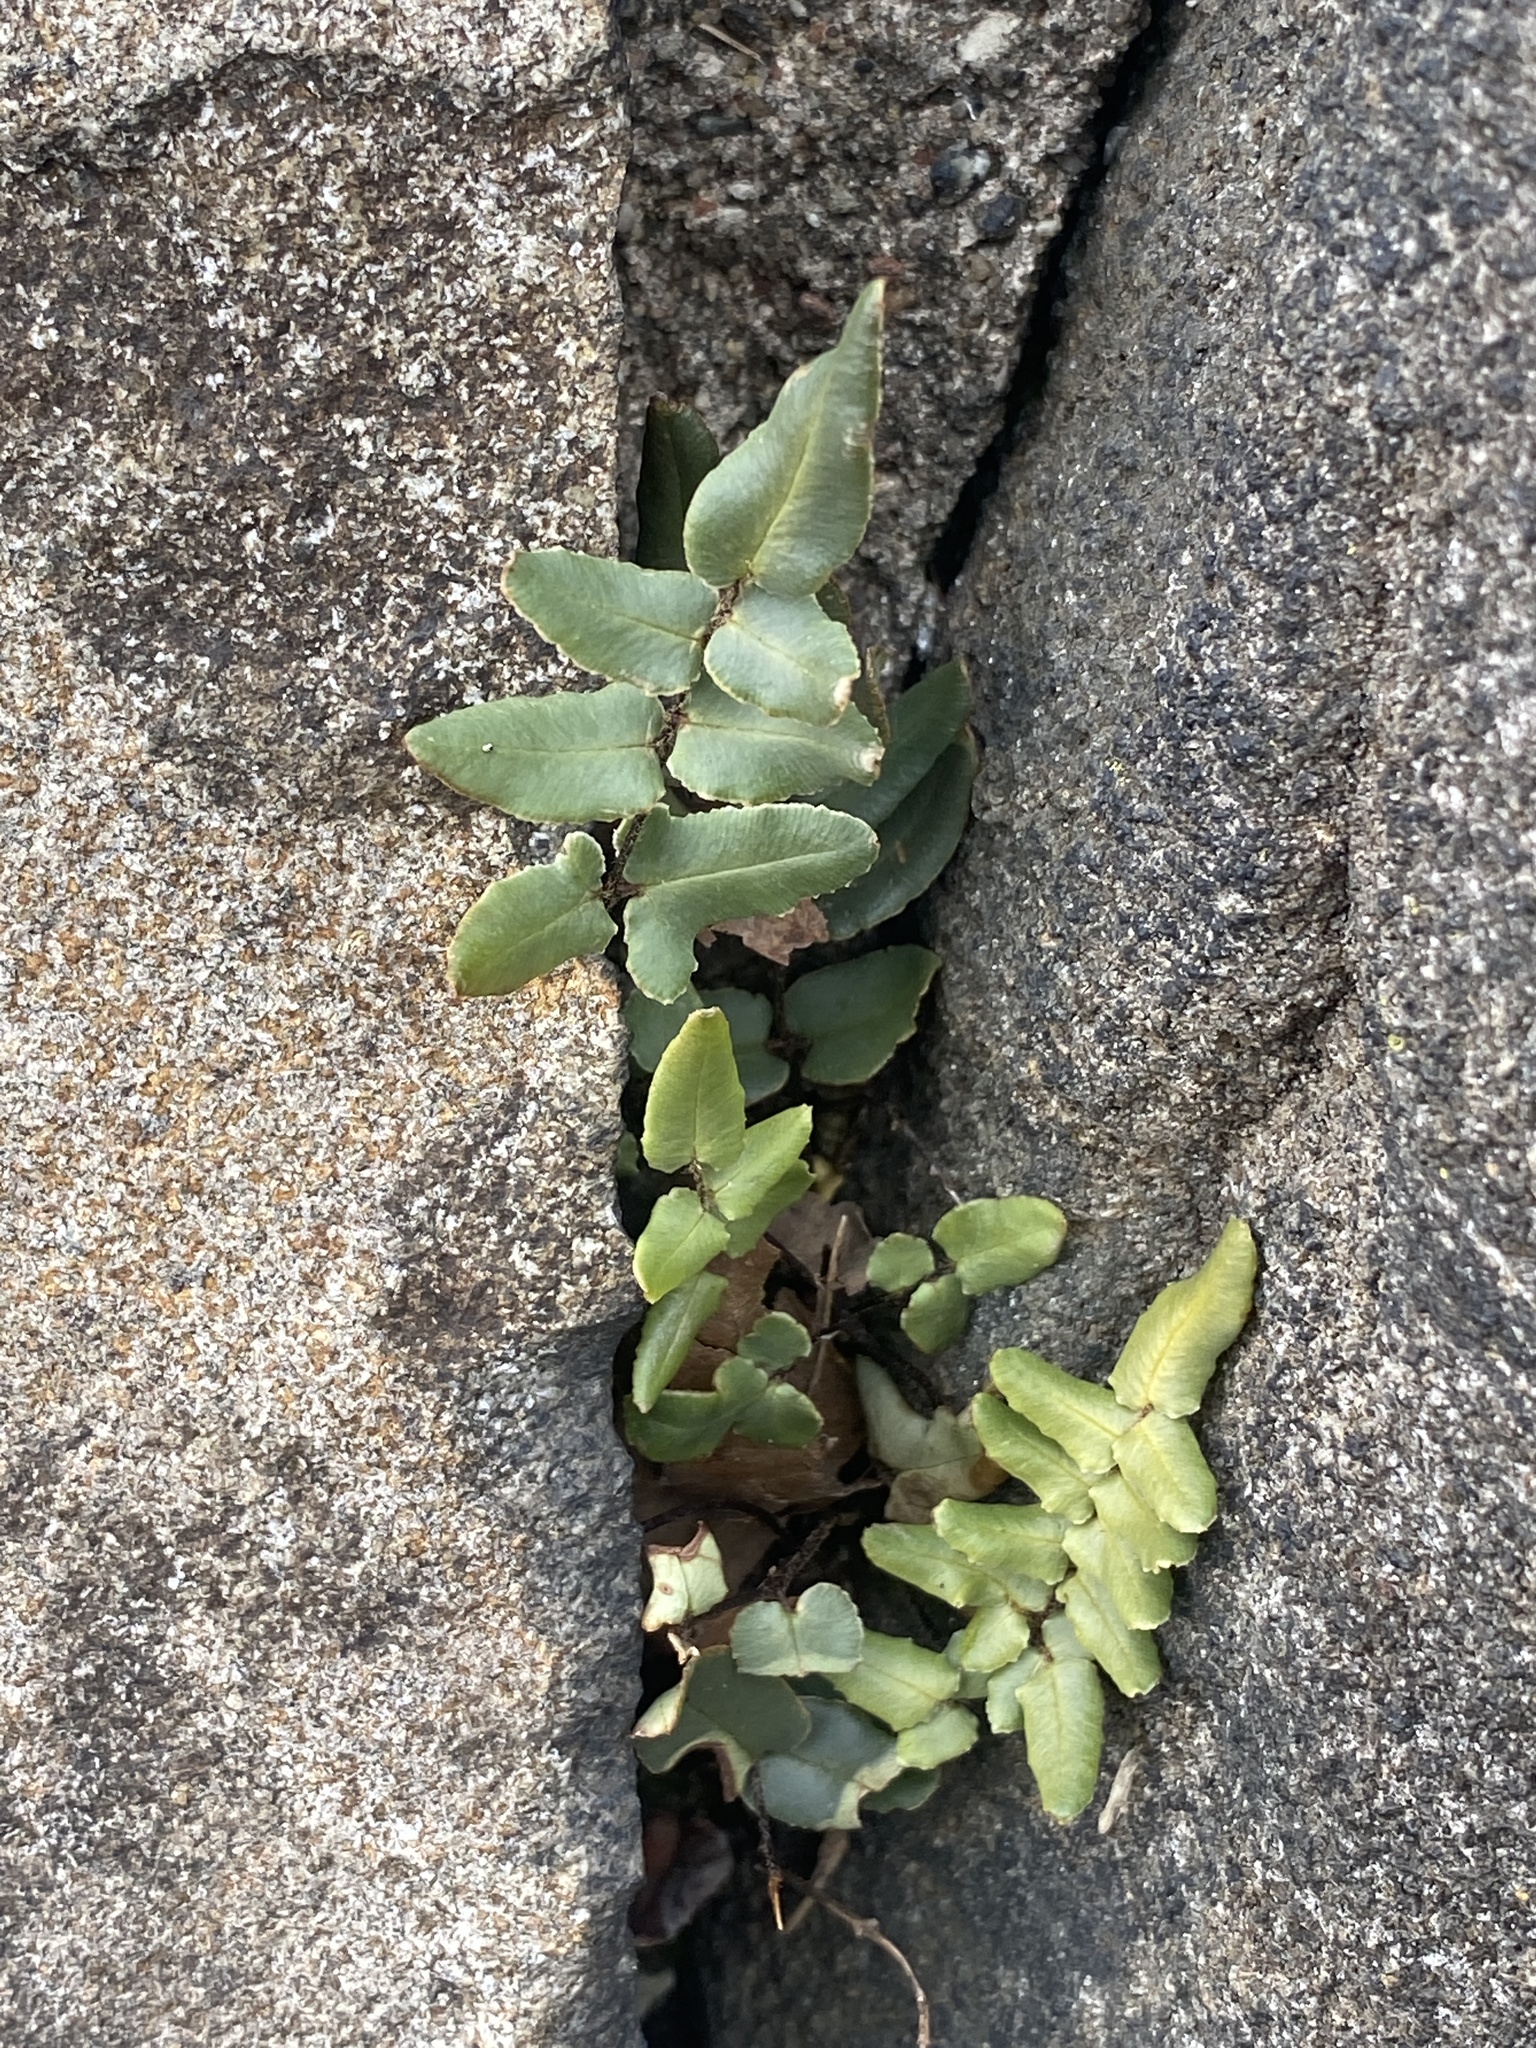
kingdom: Plantae
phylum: Tracheophyta
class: Polypodiopsida
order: Polypodiales
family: Pteridaceae
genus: Pellaea
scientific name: Pellaea atropurpurea
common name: Hairy cliffbrake
